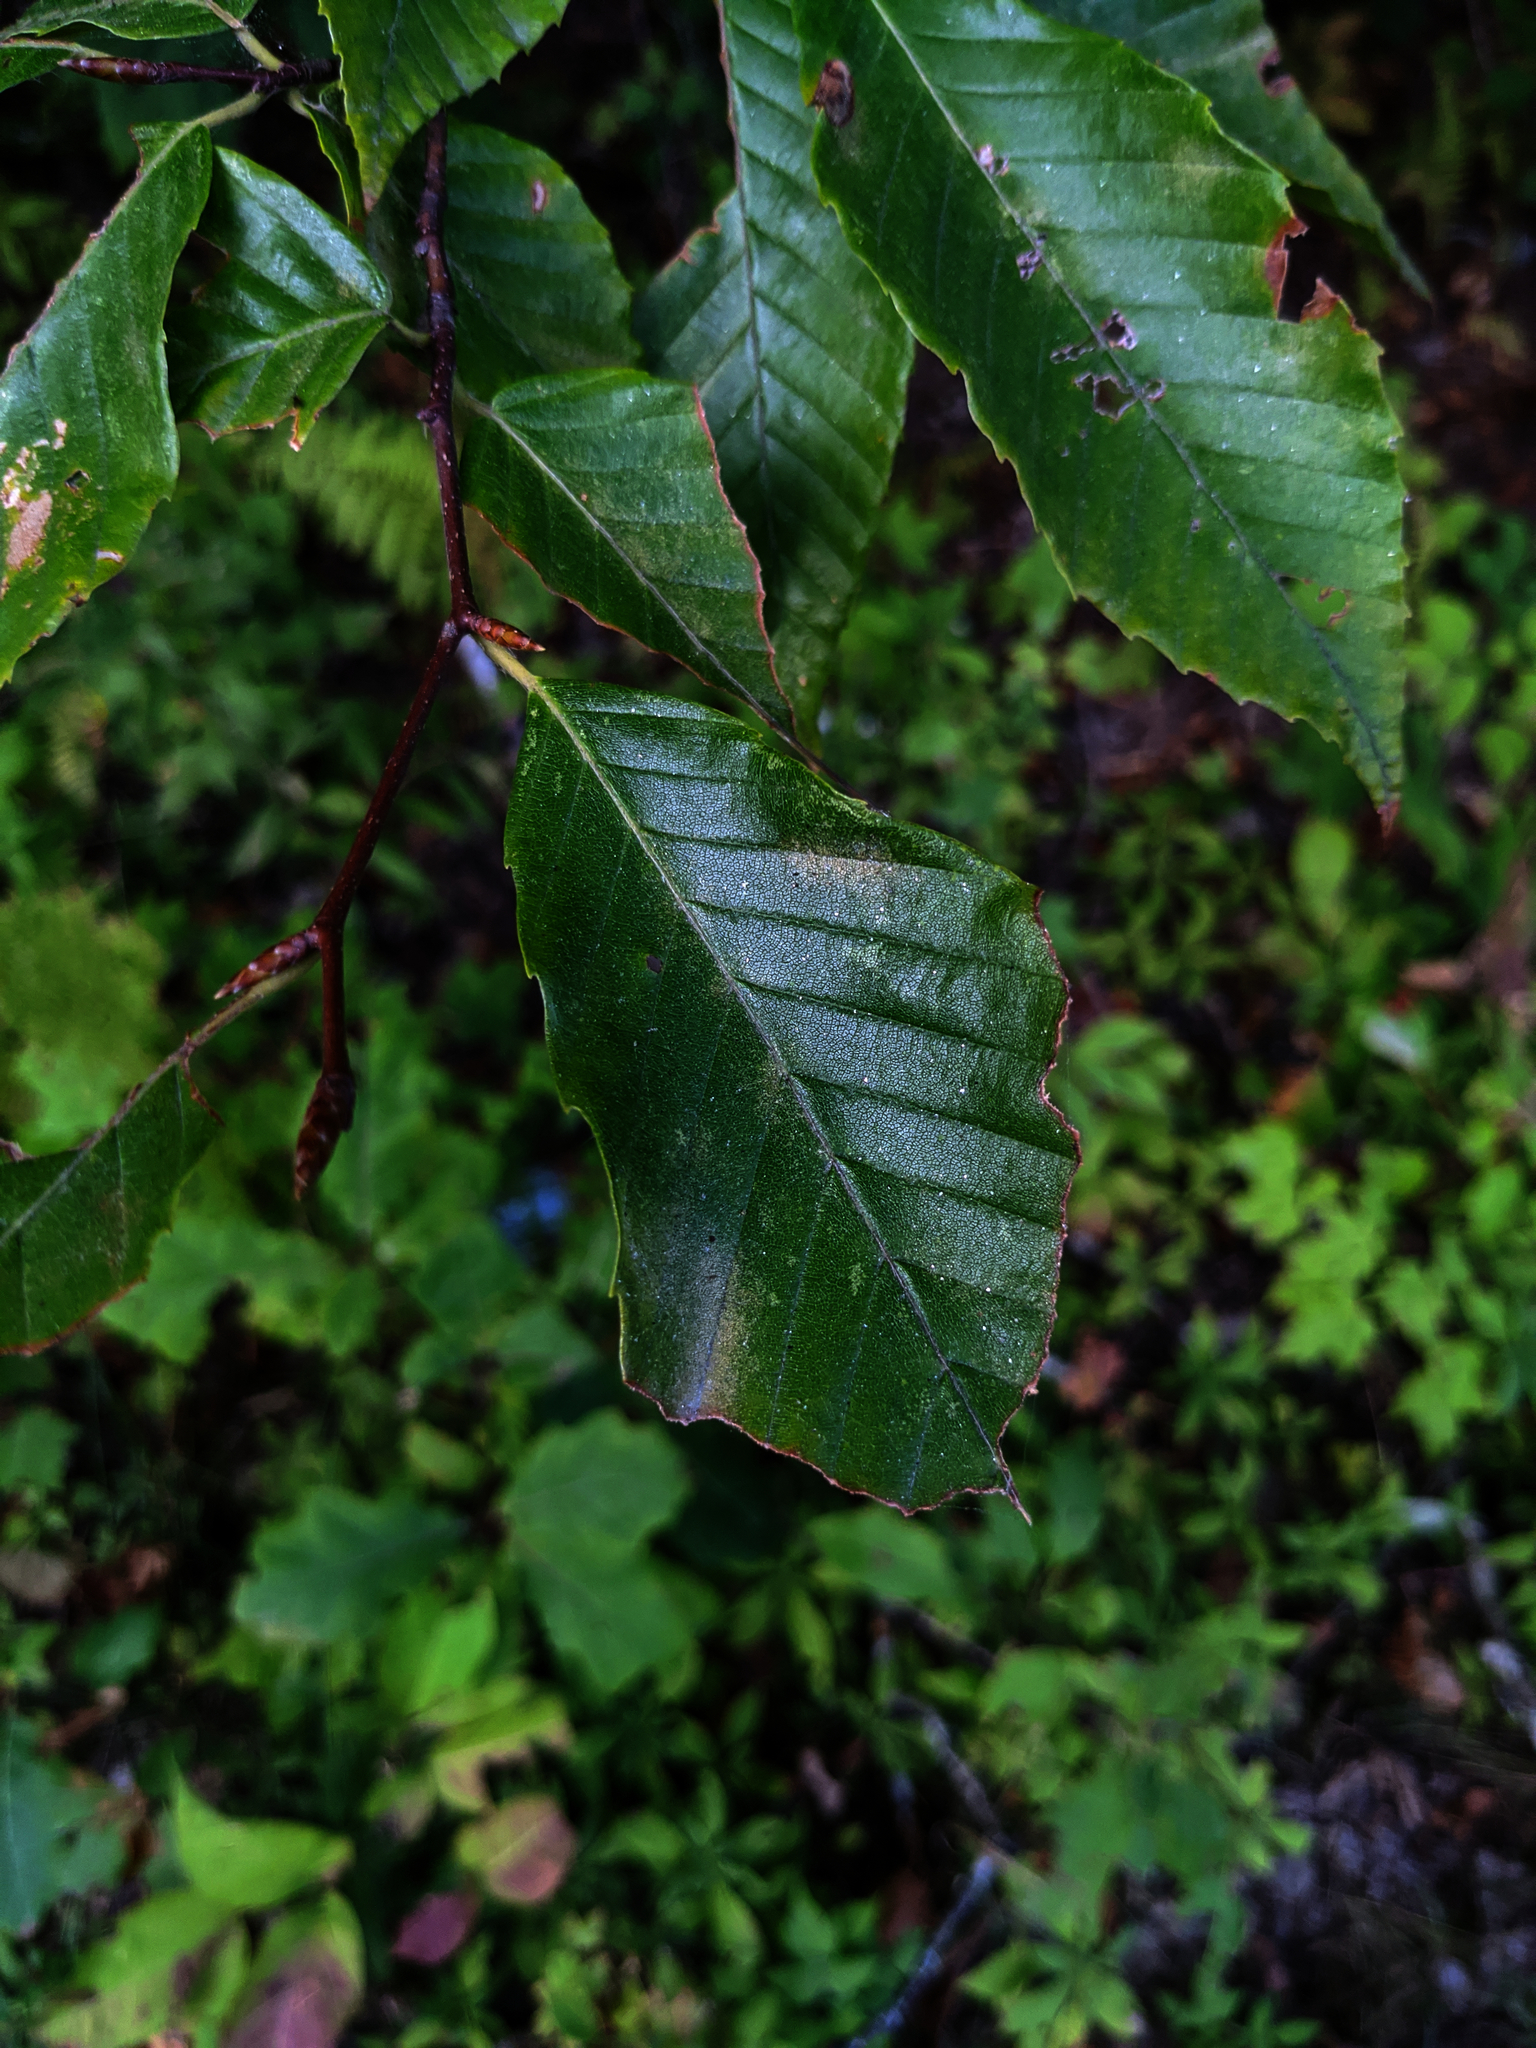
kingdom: Plantae
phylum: Tracheophyta
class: Magnoliopsida
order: Fagales
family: Fagaceae
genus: Fagus
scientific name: Fagus grandifolia
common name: American beech
